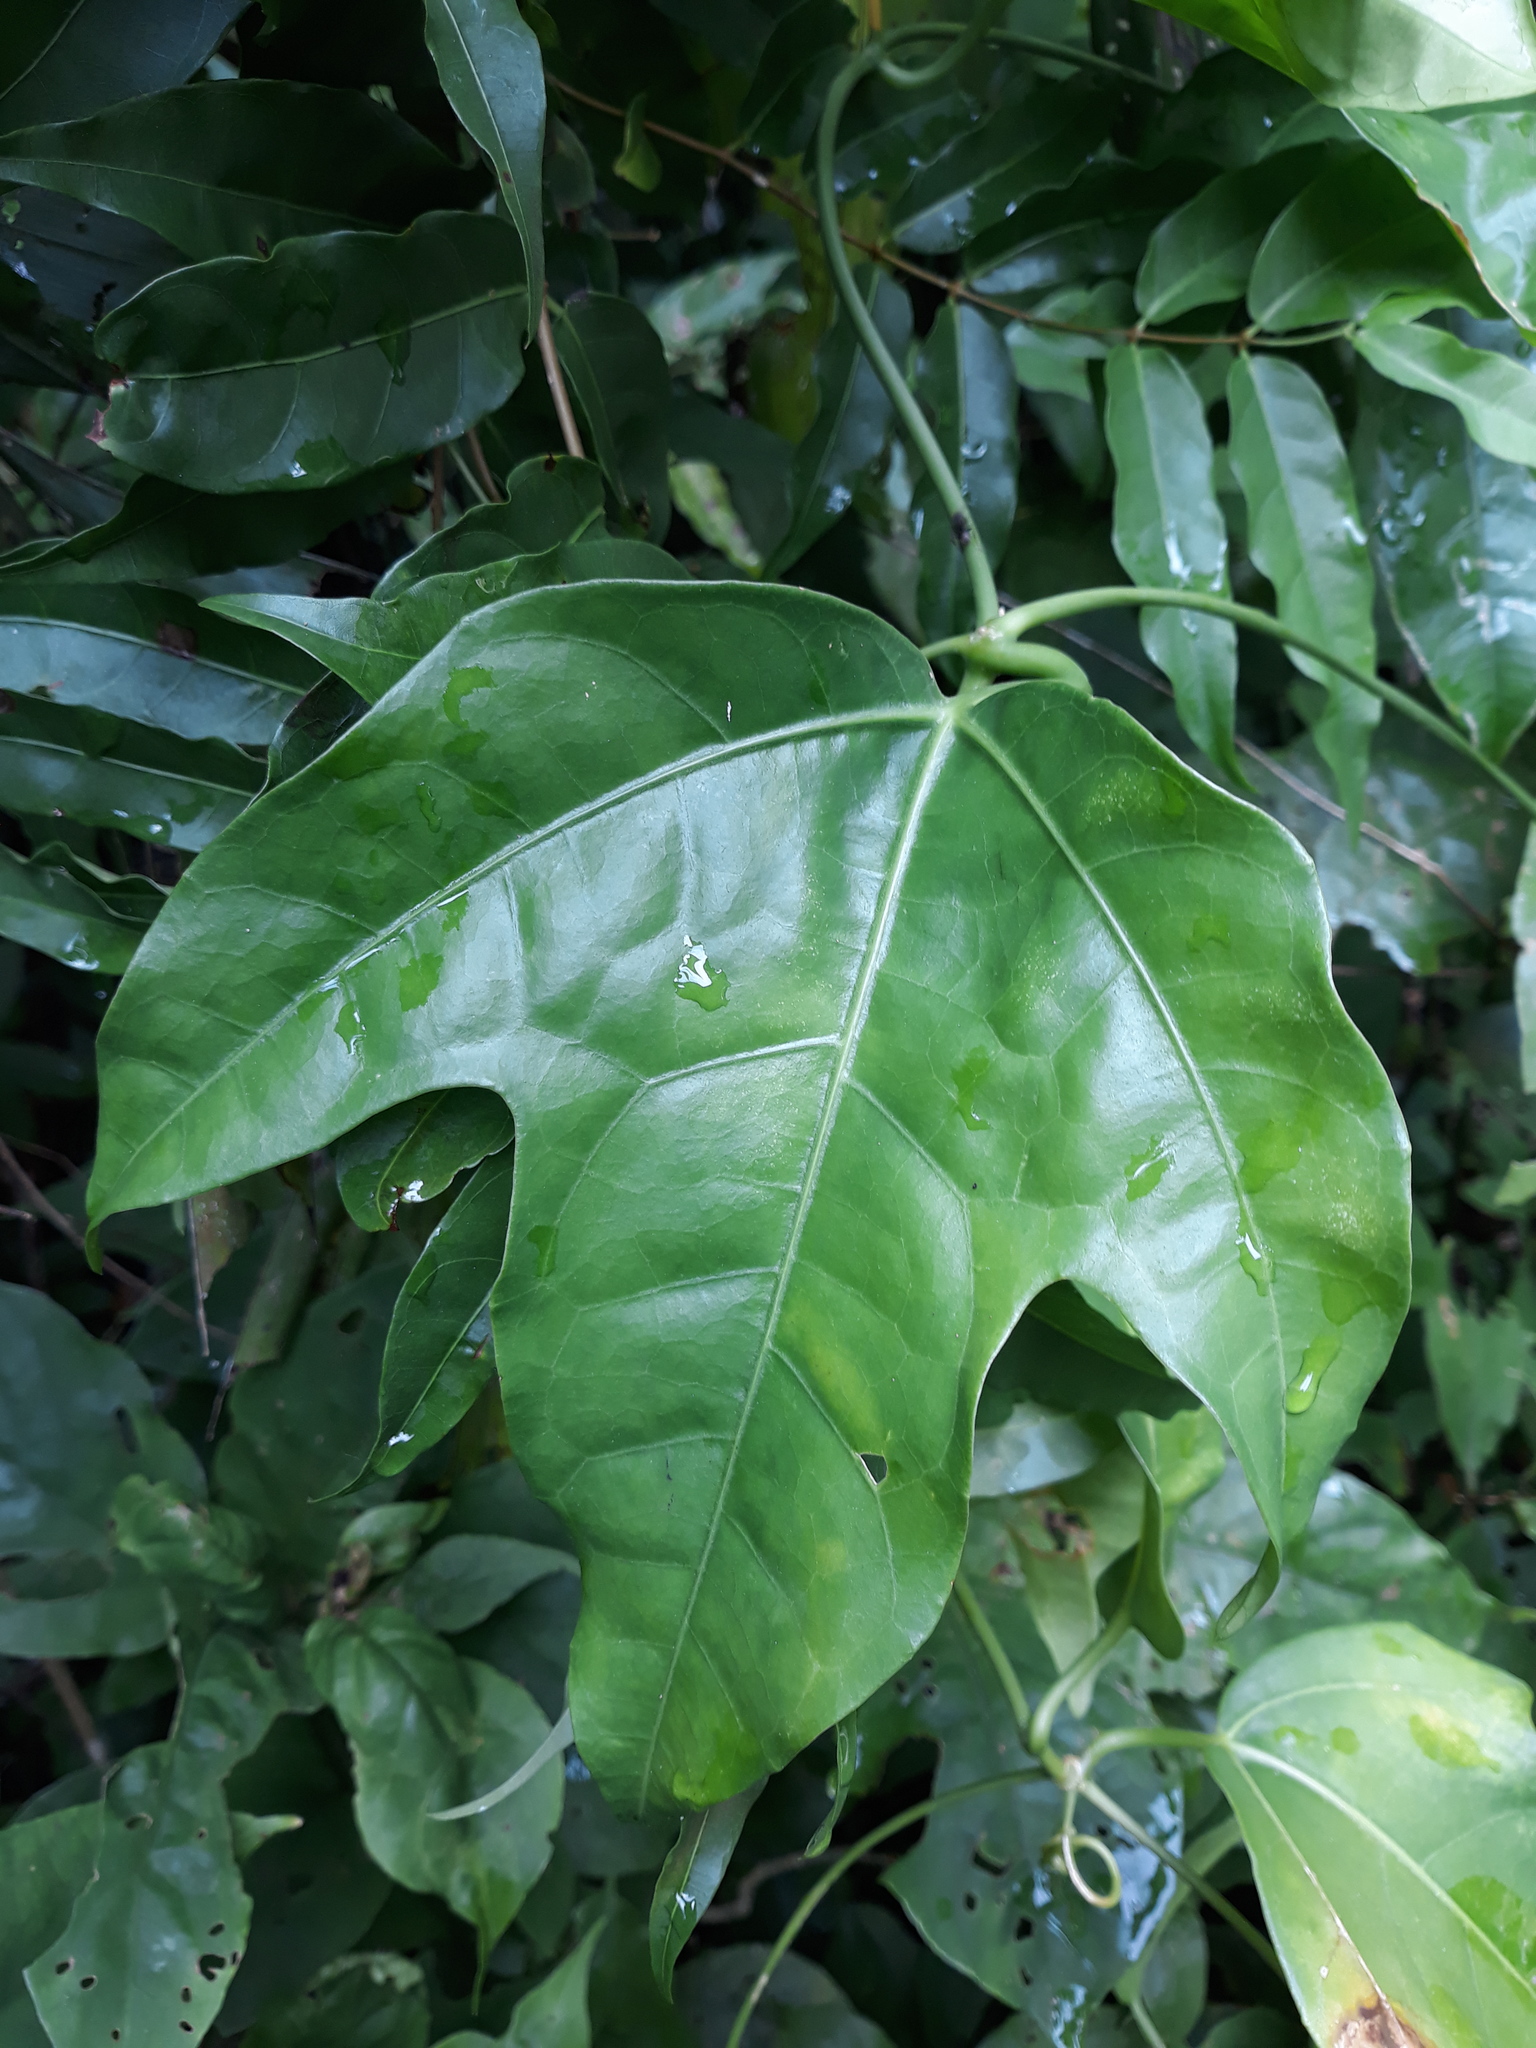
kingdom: Plantae
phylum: Tracheophyta
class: Magnoliopsida
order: Cucurbitales
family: Cucurbitaceae
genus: Psiguria
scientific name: Psiguria triphylla
